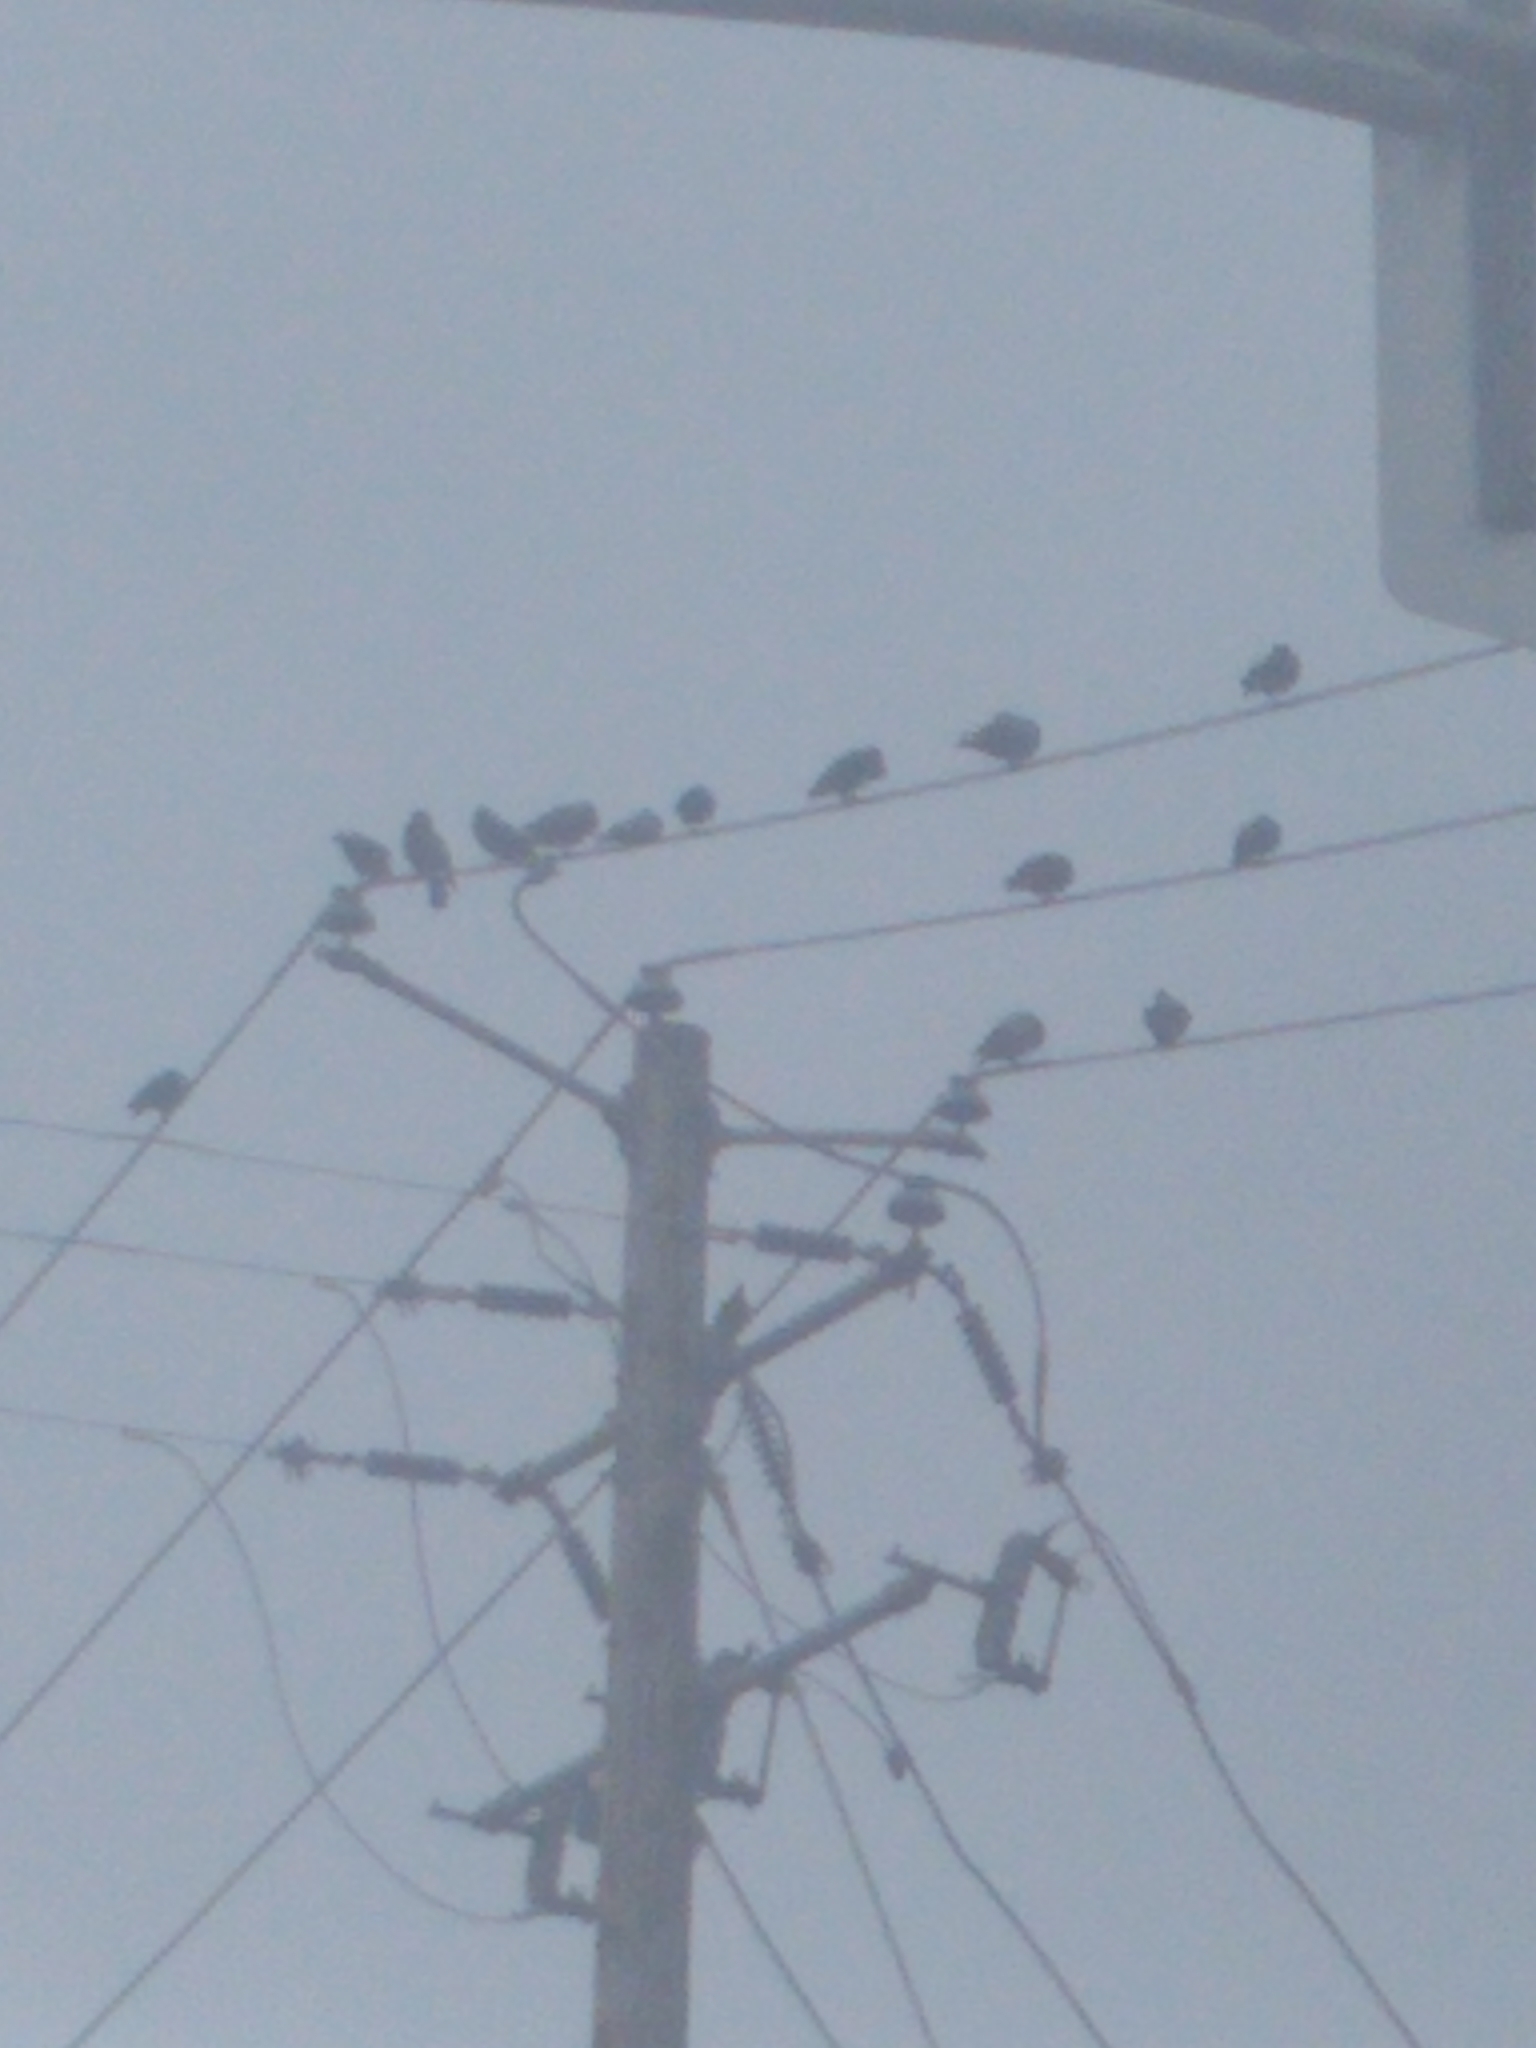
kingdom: Animalia
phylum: Chordata
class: Aves
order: Columbiformes
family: Columbidae
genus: Columba
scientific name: Columba livia
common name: Rock pigeon
